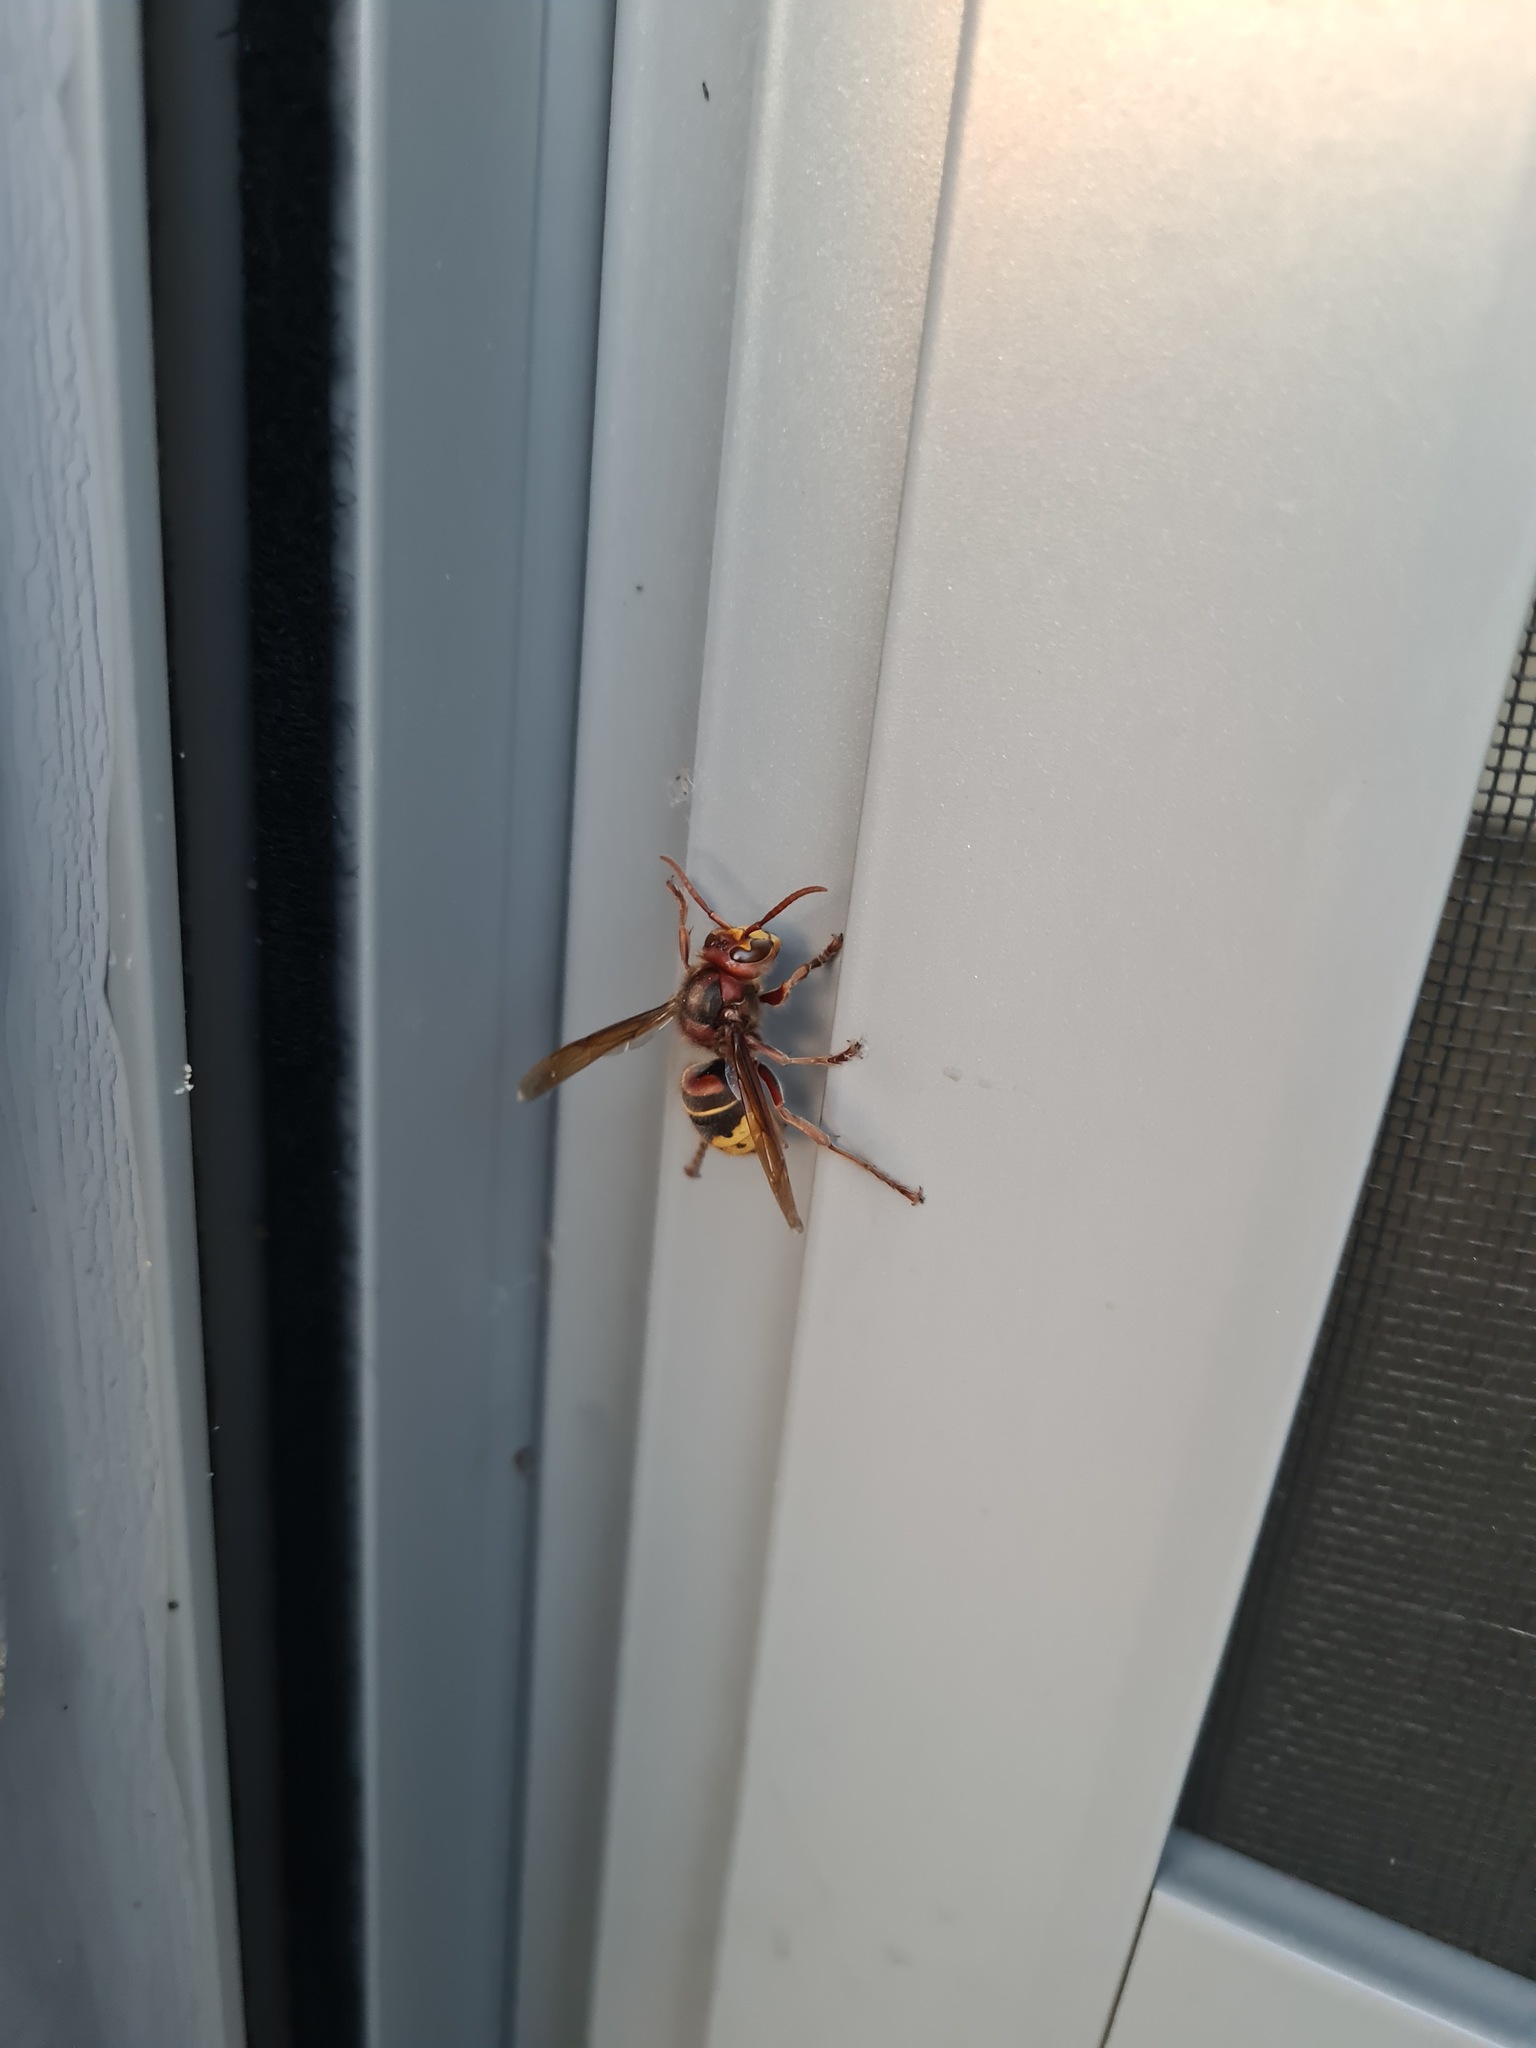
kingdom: Animalia
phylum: Arthropoda
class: Insecta
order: Hymenoptera
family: Vespidae
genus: Vespa
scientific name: Vespa crabro
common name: Hornet
